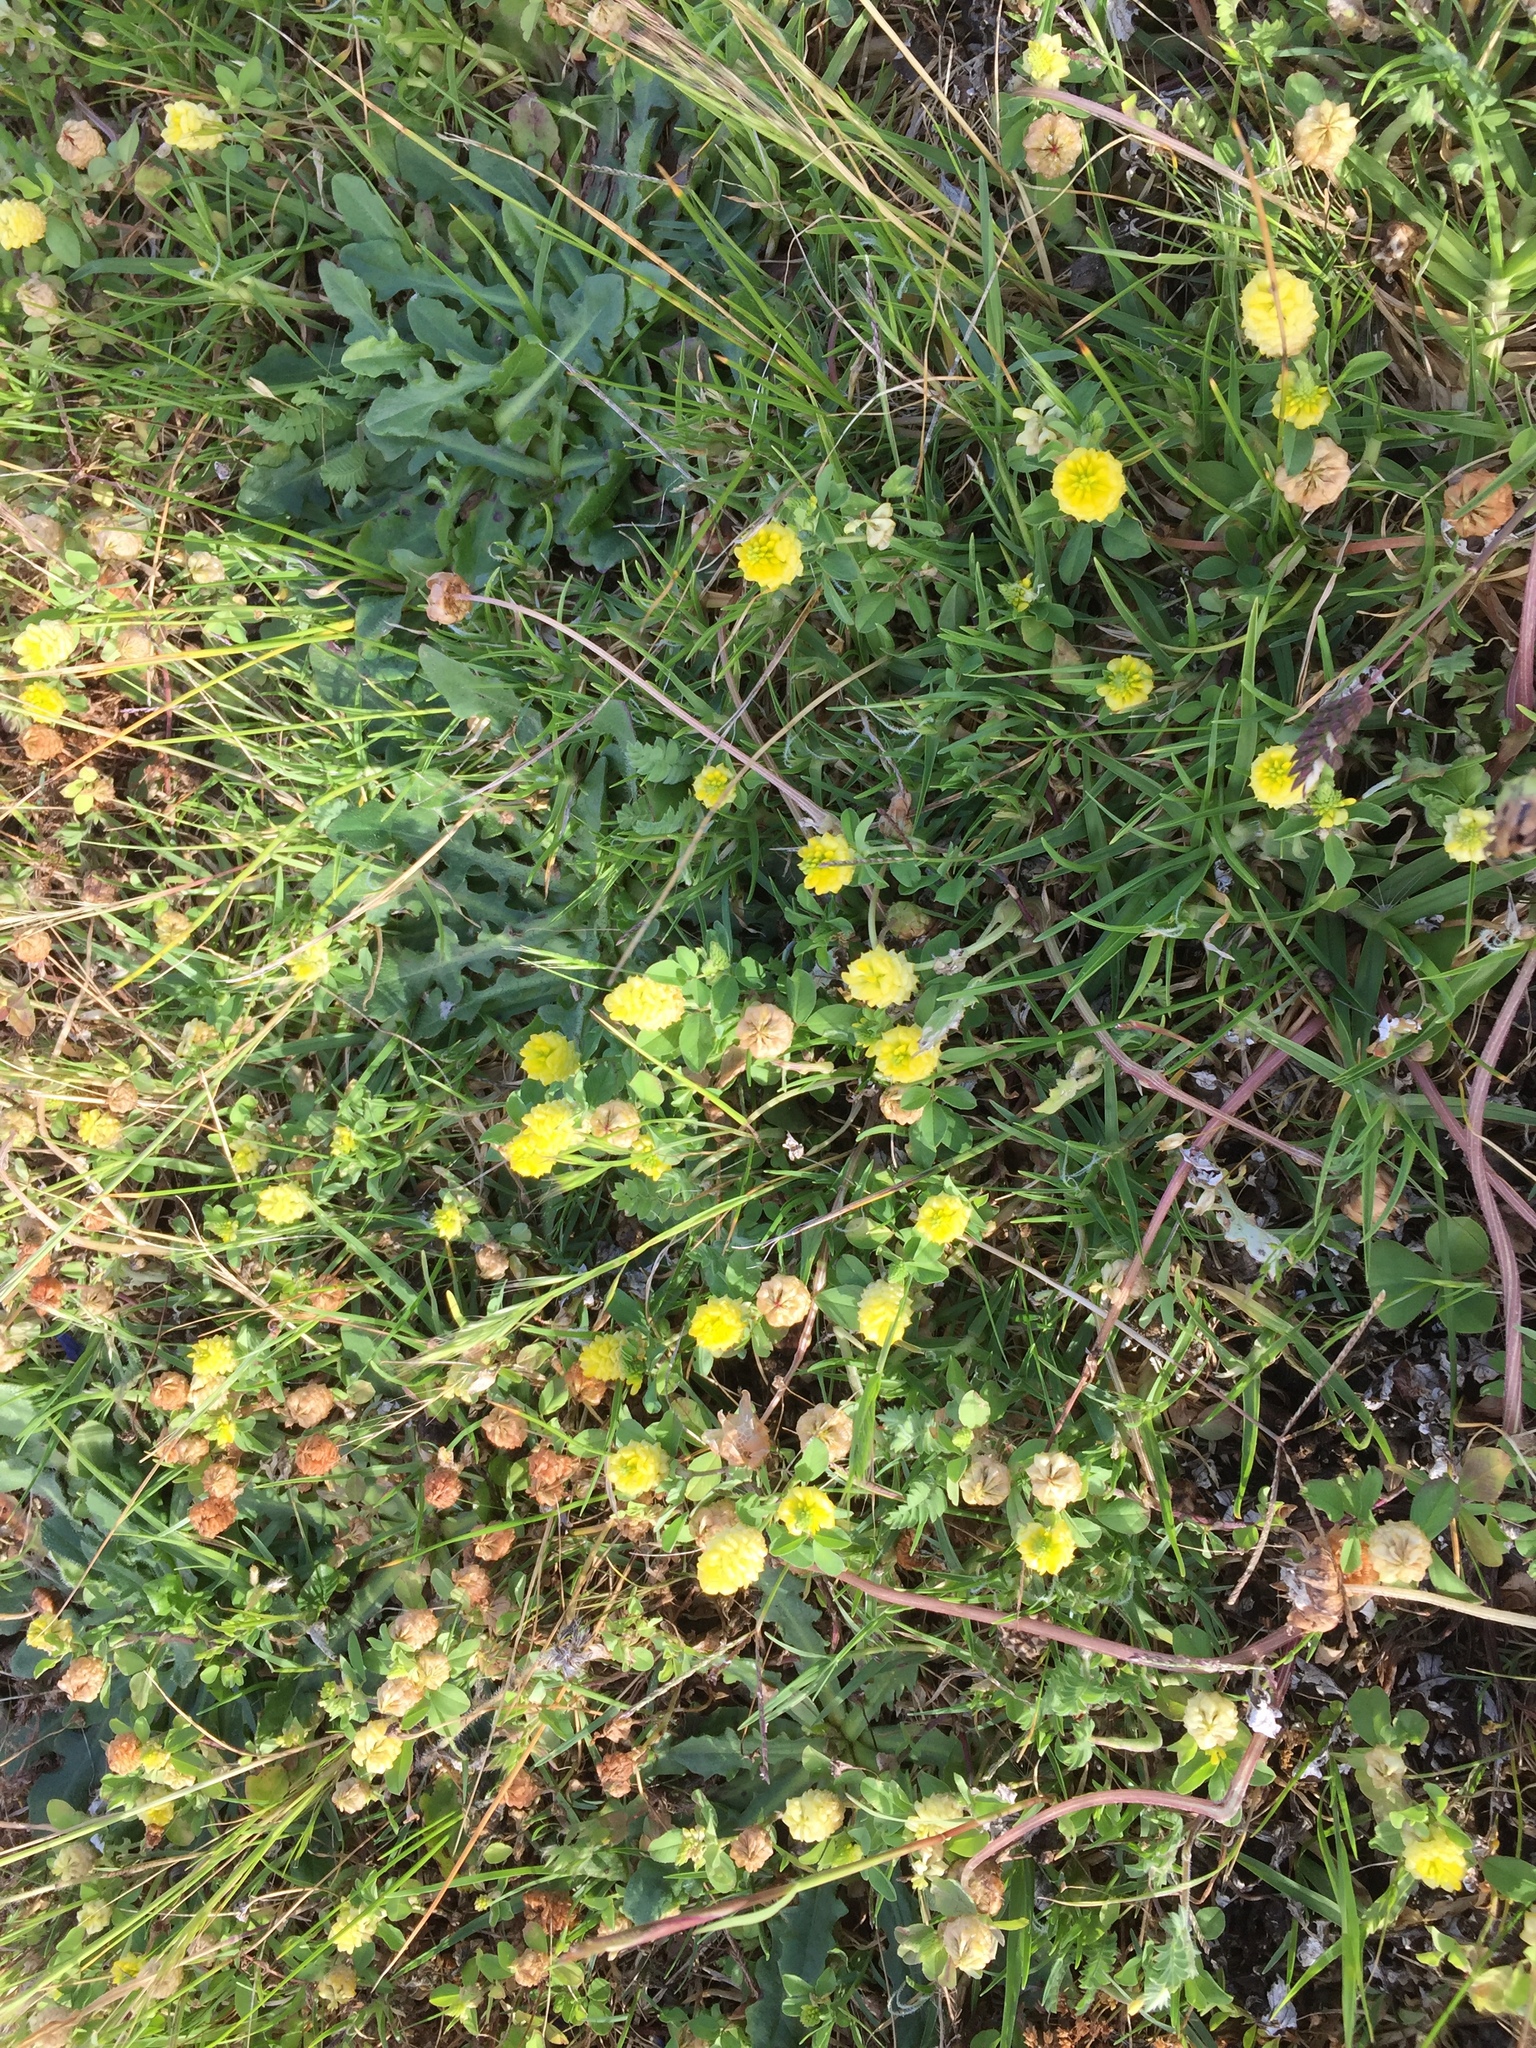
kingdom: Plantae
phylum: Tracheophyta
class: Magnoliopsida
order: Fabales
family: Fabaceae
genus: Trifolium
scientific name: Trifolium campestre
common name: Field clover
